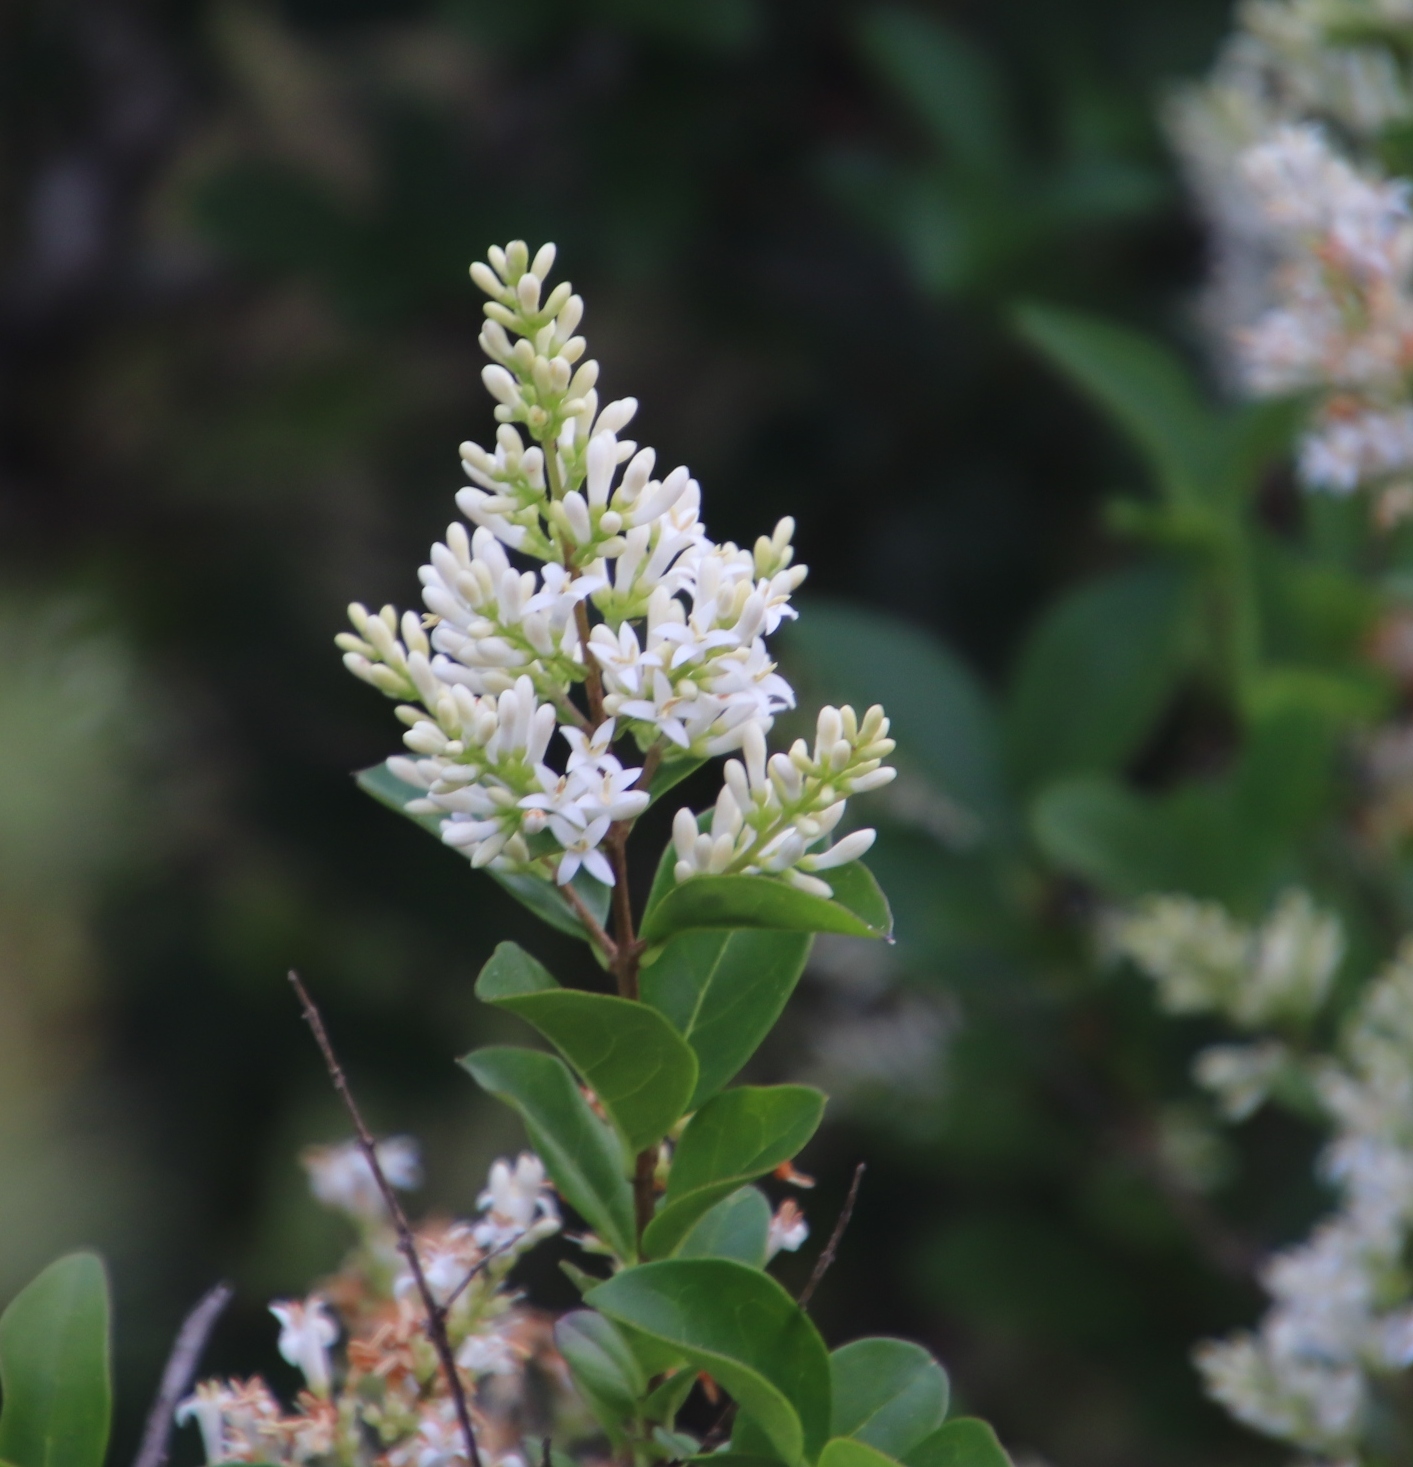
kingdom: Plantae
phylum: Tracheophyta
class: Magnoliopsida
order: Lamiales
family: Oleaceae
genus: Ligustrum
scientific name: Ligustrum ovalifolium
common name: California privet
